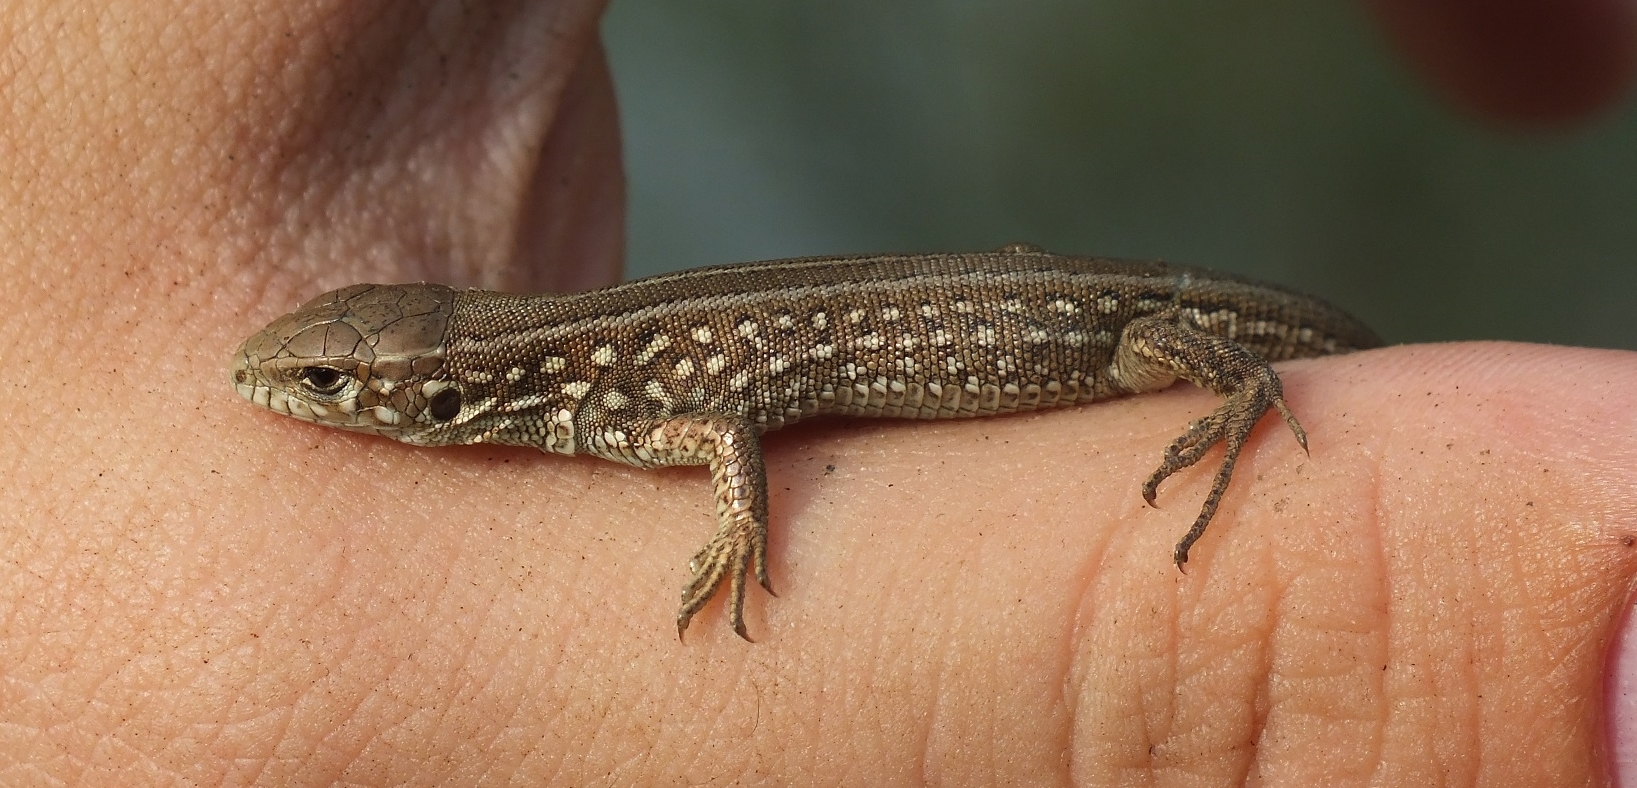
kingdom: Animalia
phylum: Chordata
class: Squamata
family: Lacertidae
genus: Lacerta
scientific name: Lacerta agilis
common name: Sand lizard
